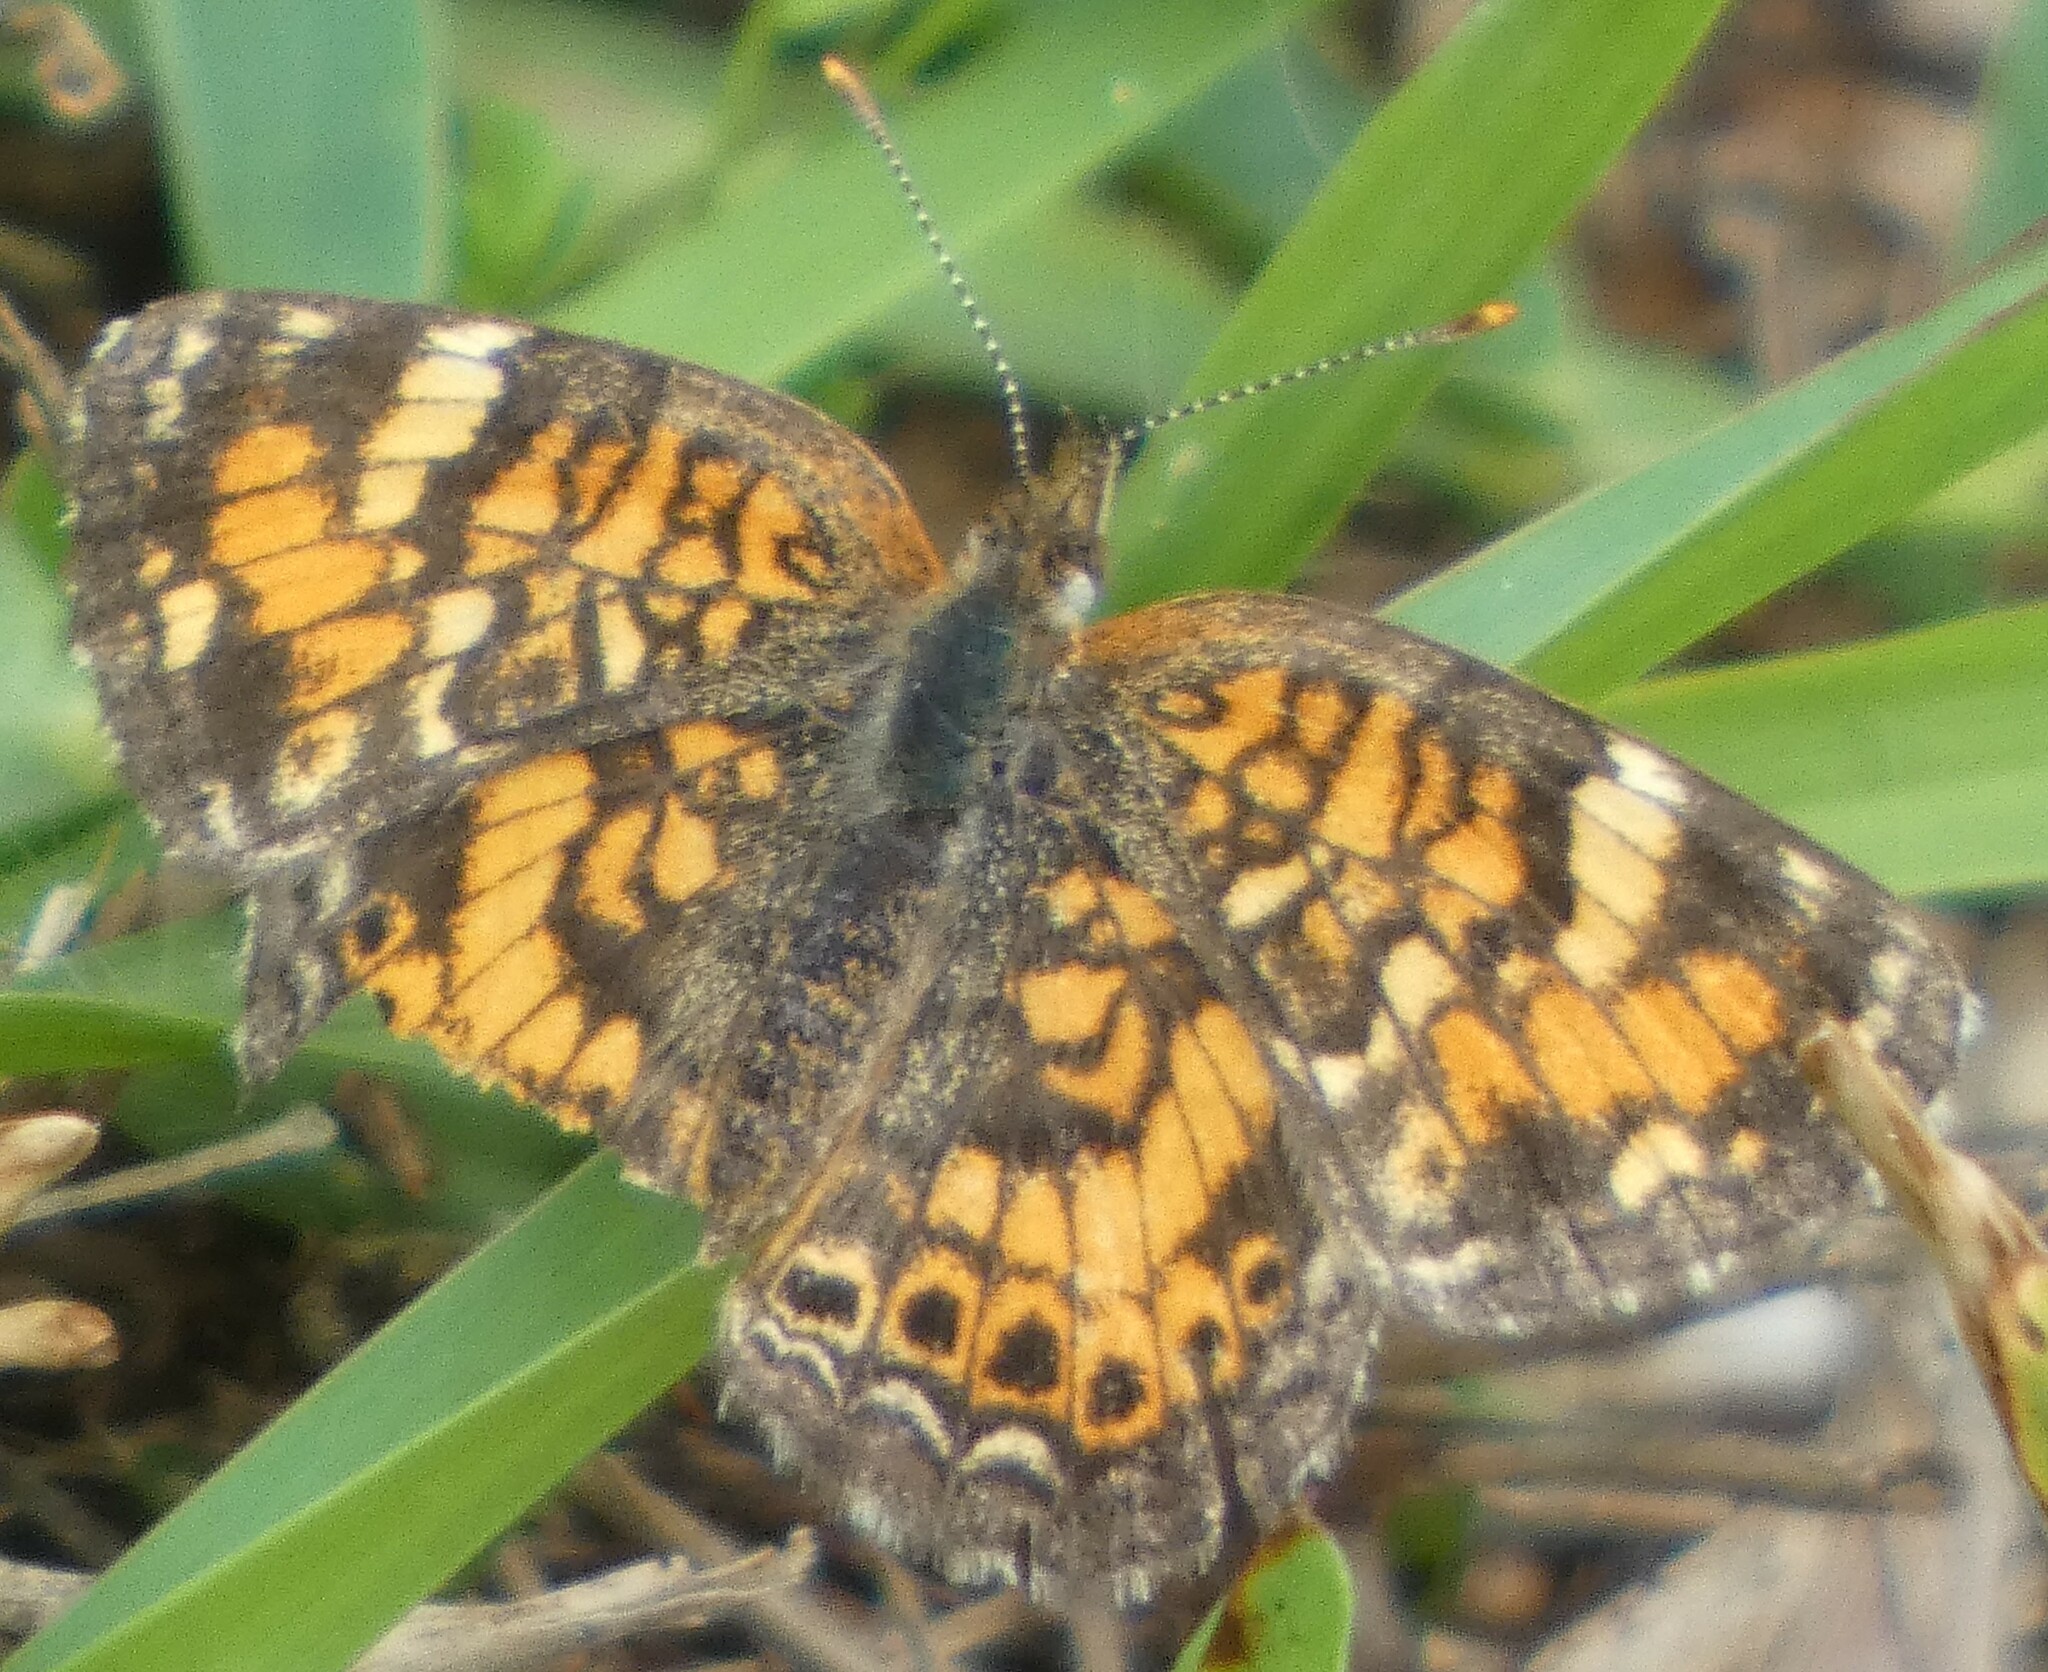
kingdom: Animalia
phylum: Arthropoda
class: Insecta
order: Lepidoptera
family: Nymphalidae
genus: Phyciodes
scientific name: Phyciodes phaon
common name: Phaon crescent
